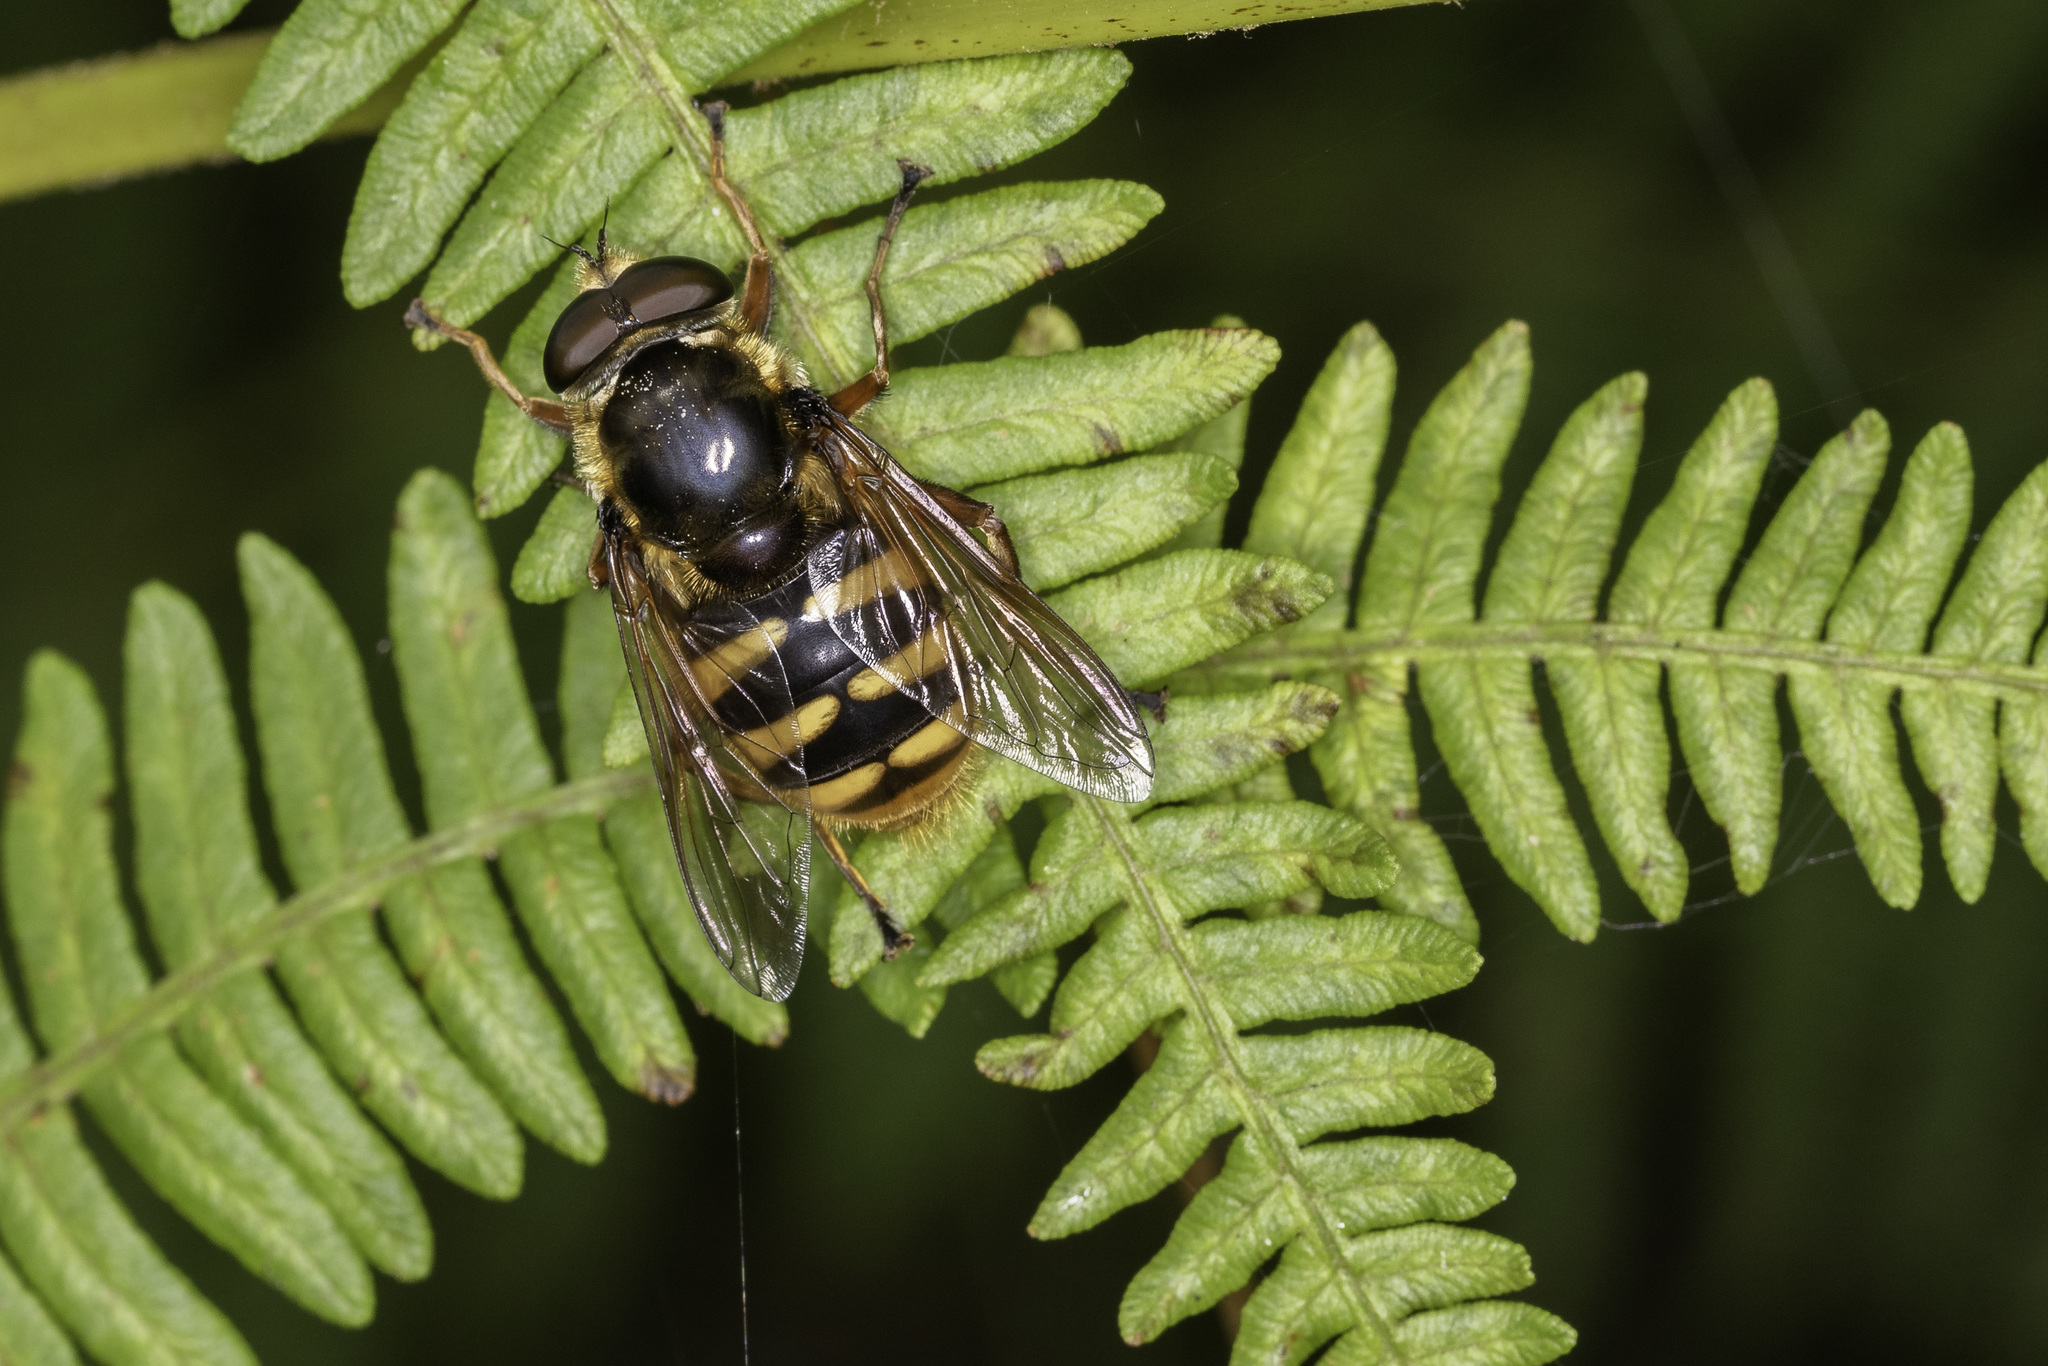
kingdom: Animalia
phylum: Arthropoda
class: Insecta
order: Diptera
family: Syrphidae
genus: Sericomyia
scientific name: Sericomyia silentis
